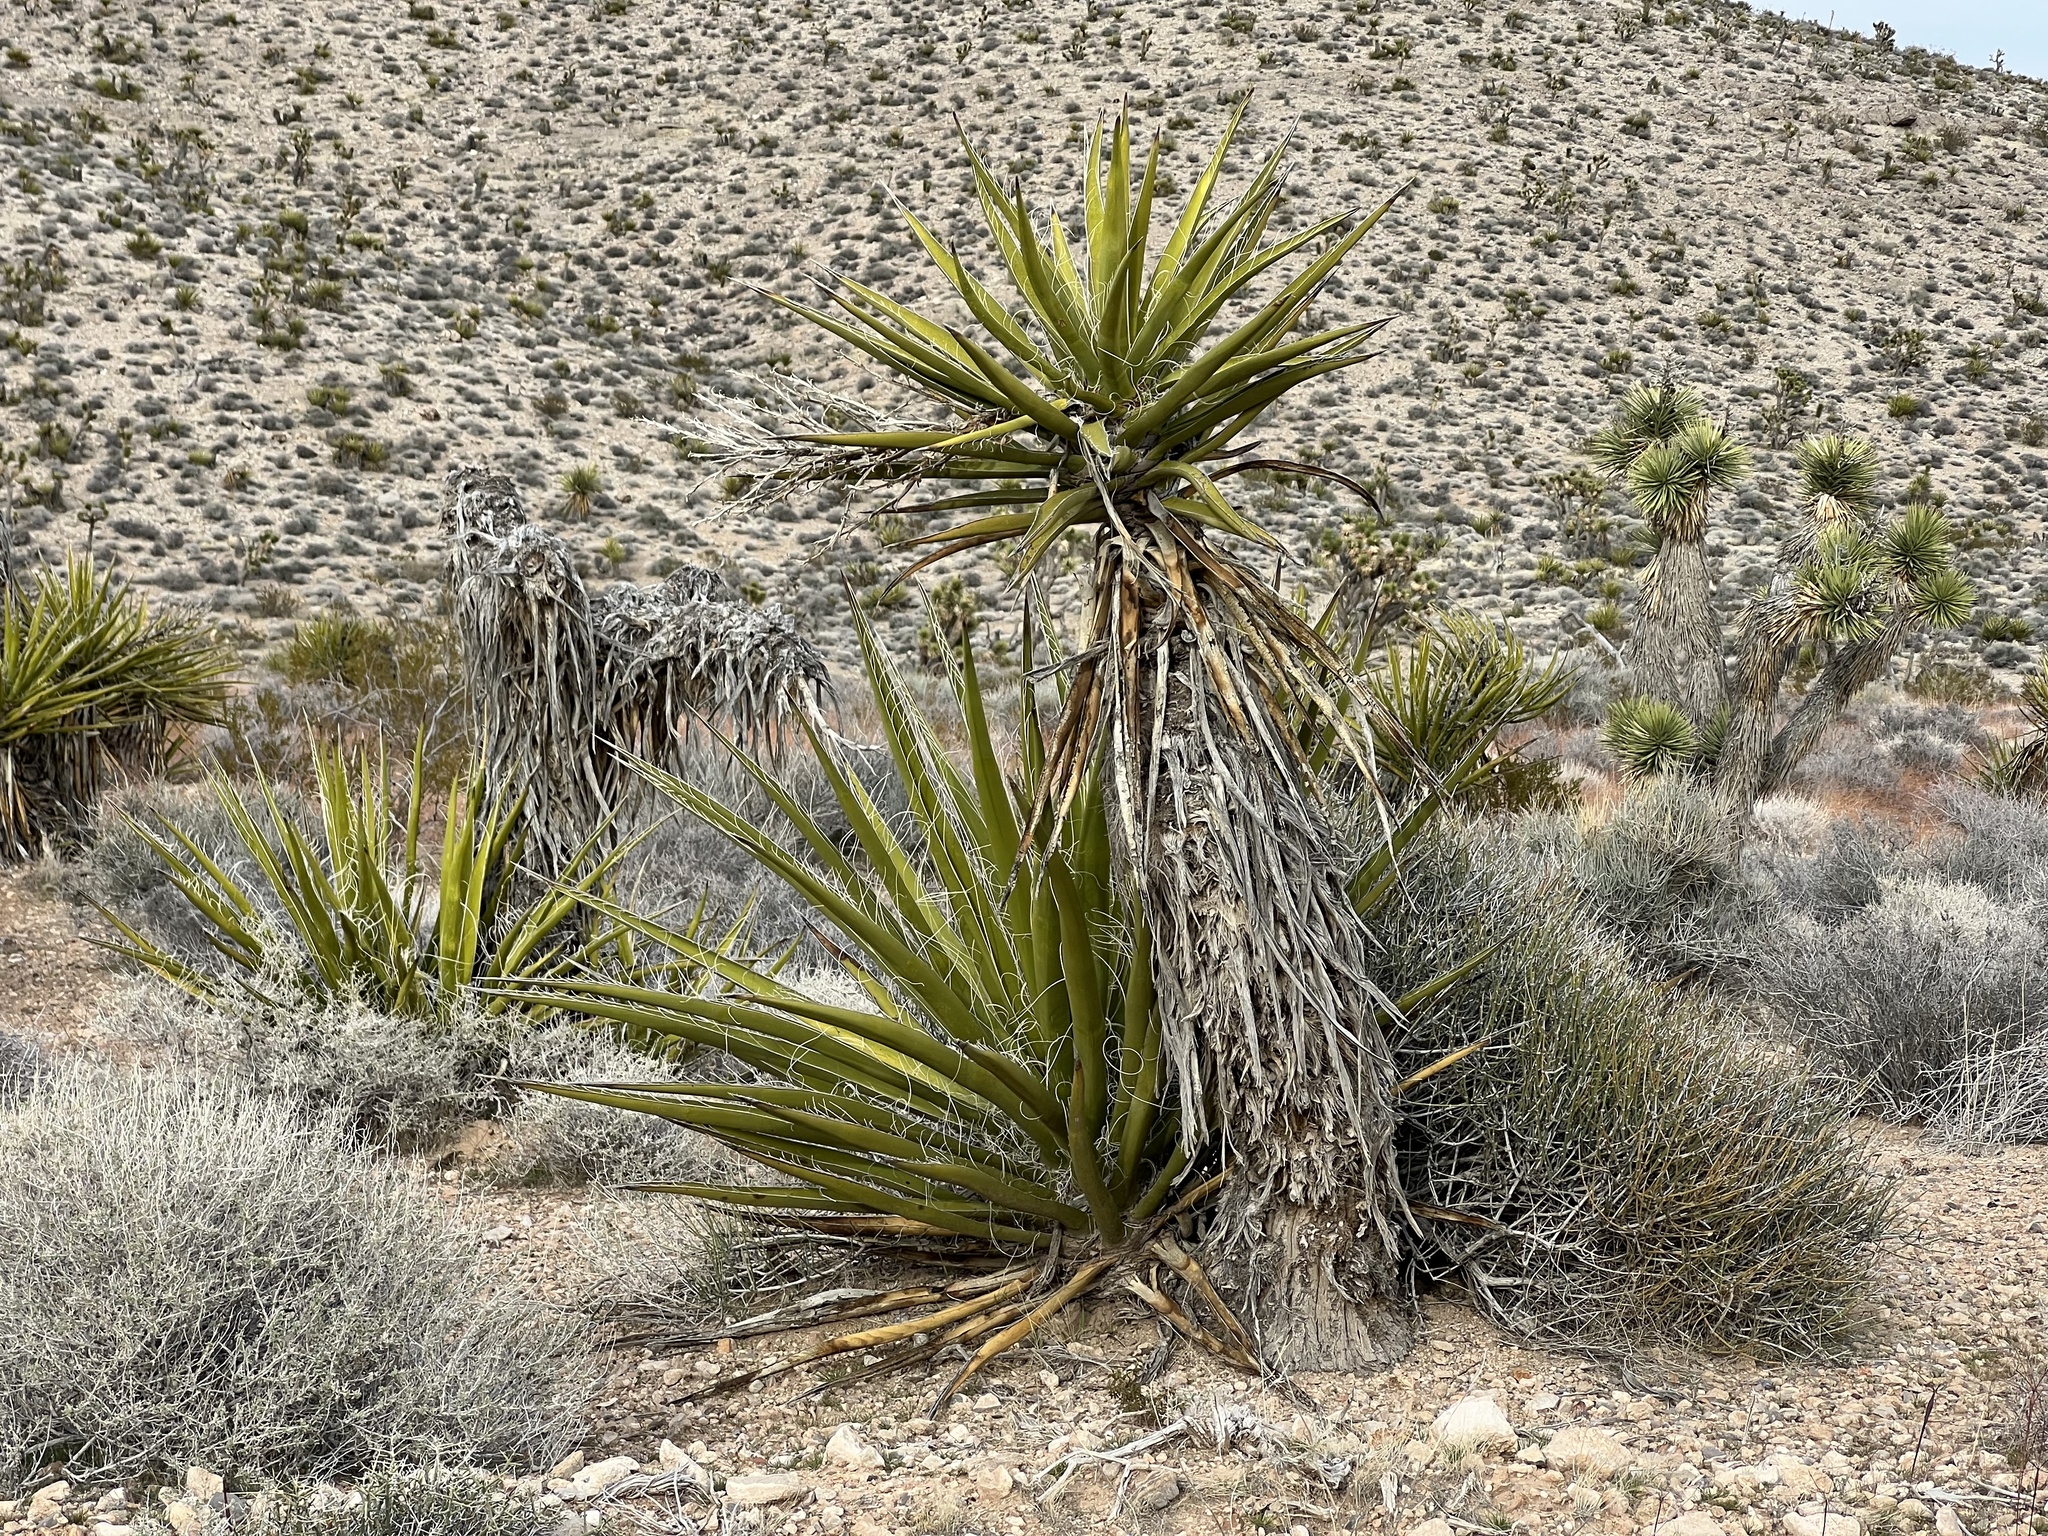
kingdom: Plantae
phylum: Tracheophyta
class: Liliopsida
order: Asparagales
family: Asparagaceae
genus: Yucca
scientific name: Yucca schidigera
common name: Mojave yucca
